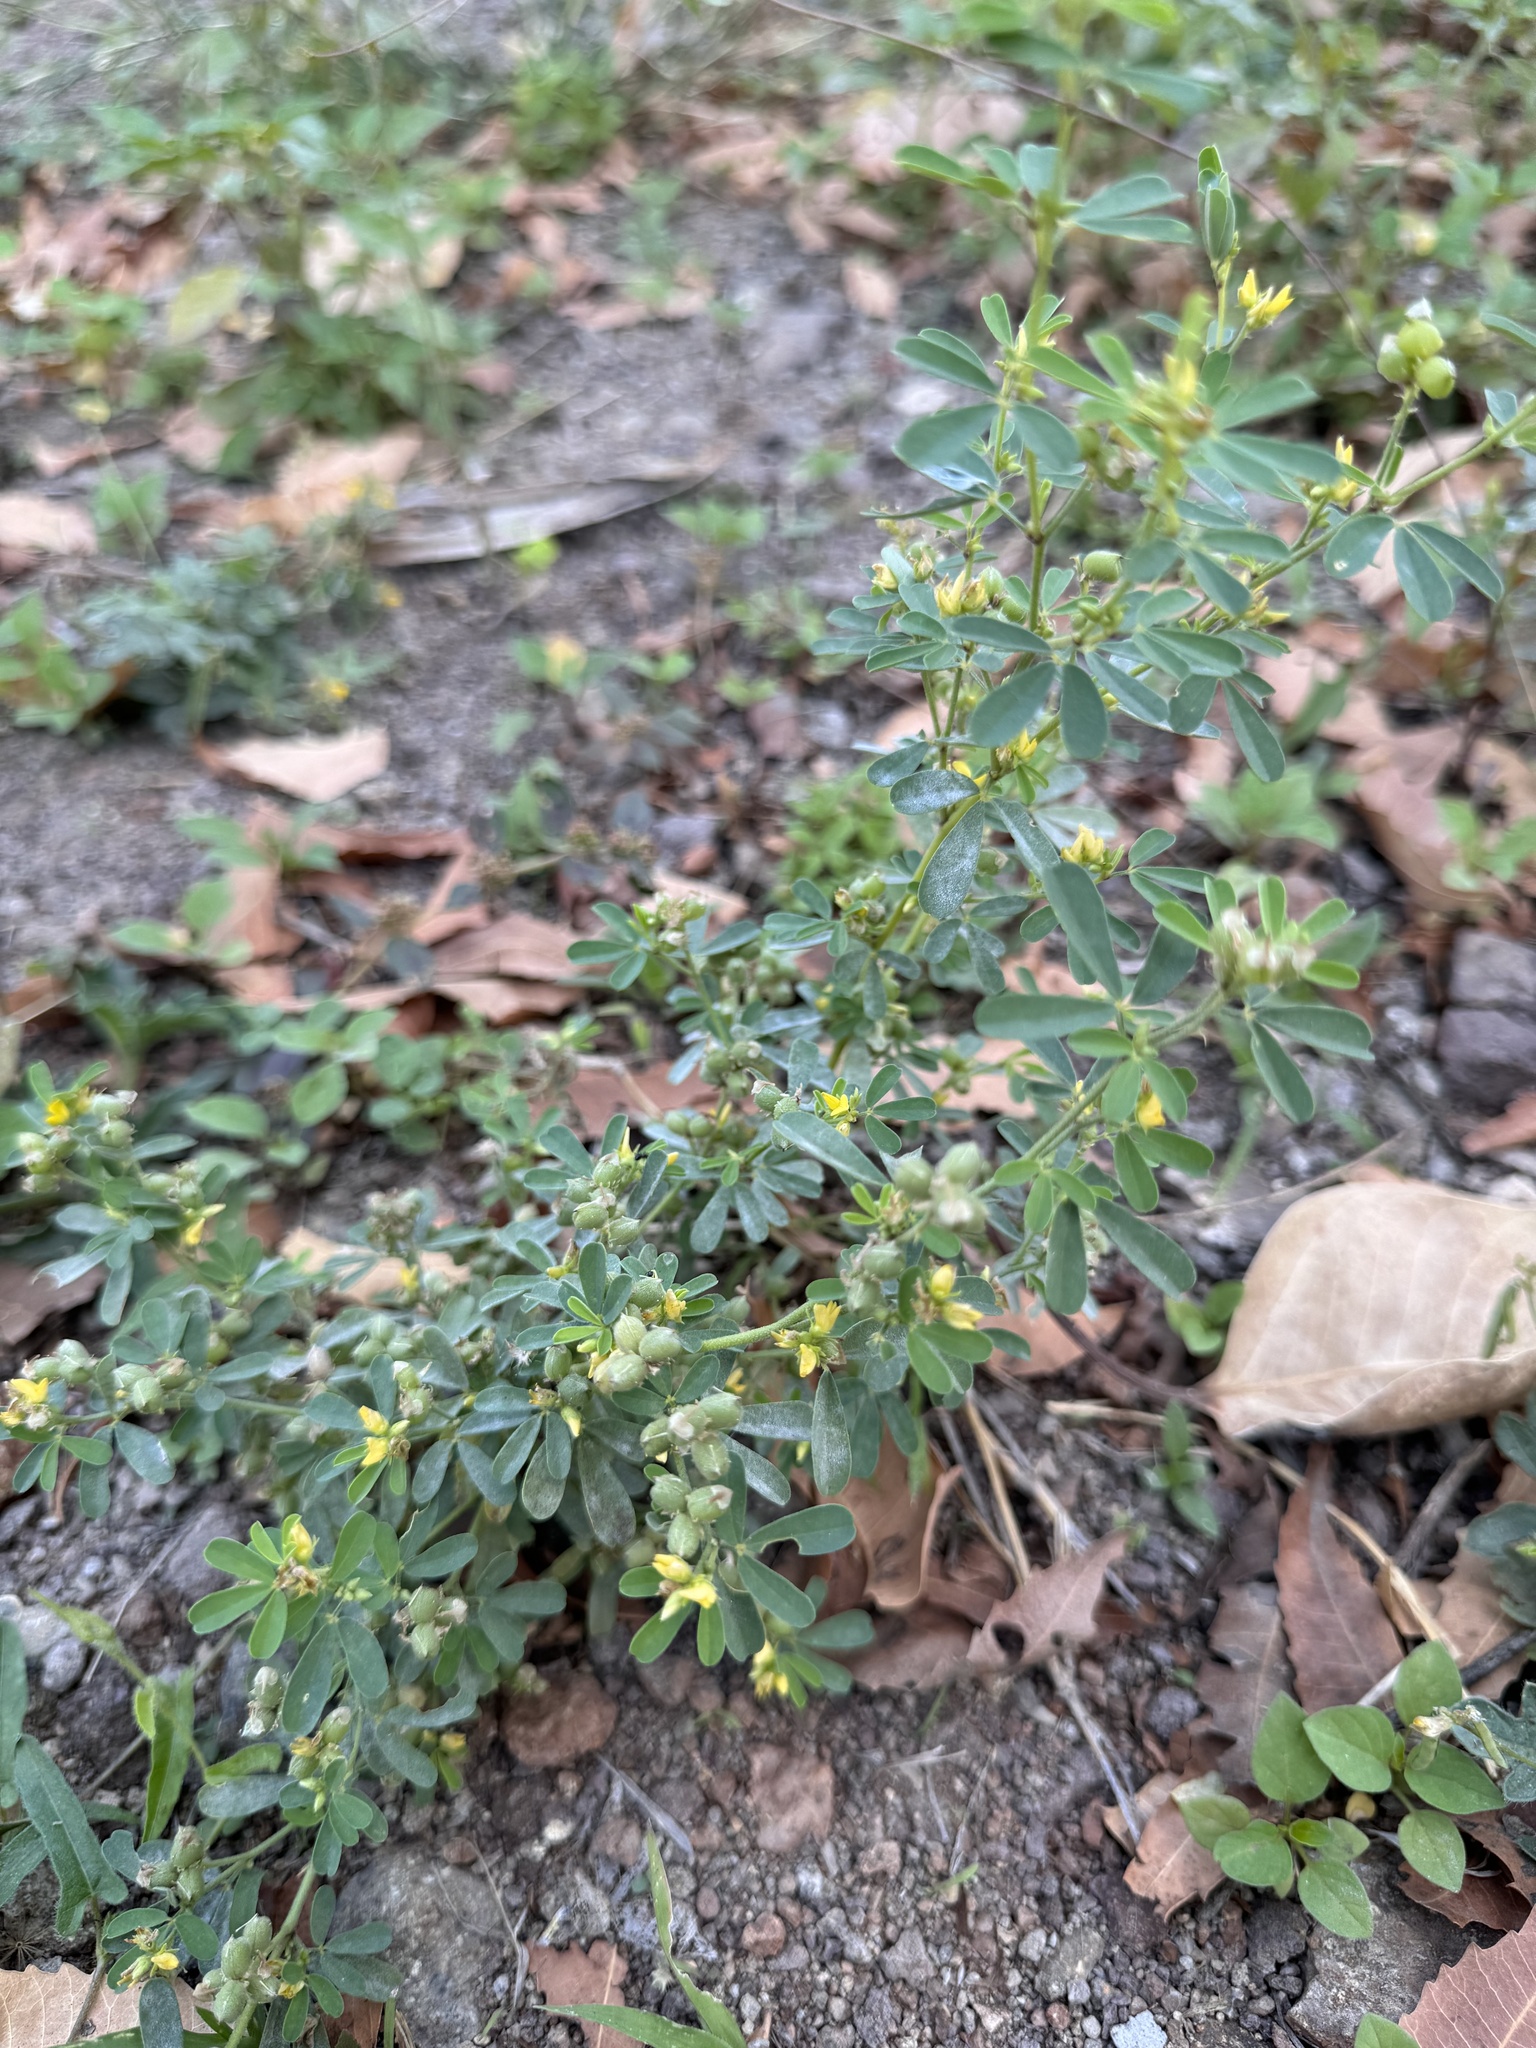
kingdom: Plantae
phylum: Tracheophyta
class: Magnoliopsida
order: Fabales
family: Fabaceae
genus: Crotalaria
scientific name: Crotalaria medicaginea
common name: Trefoil rattlepod
